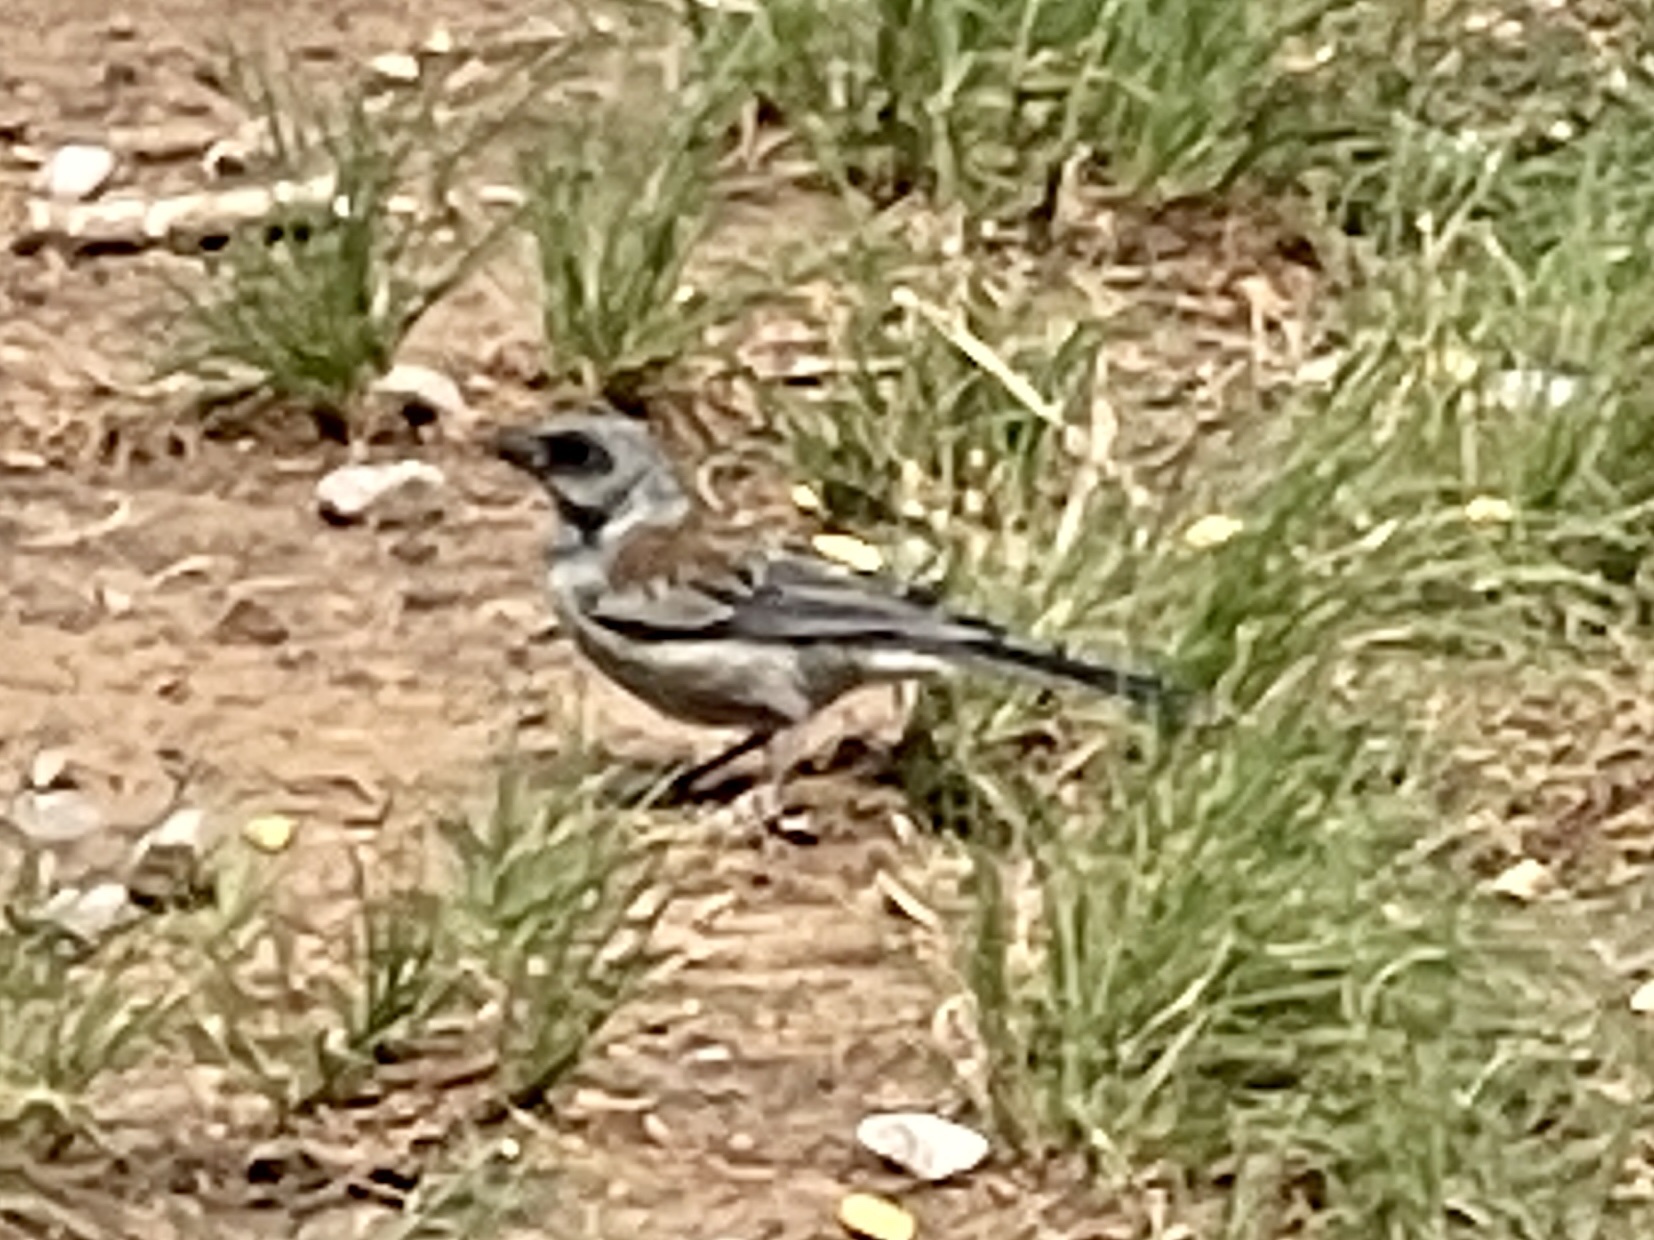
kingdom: Animalia
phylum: Chordata
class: Aves
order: Passeriformes
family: Passerellidae
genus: Junco
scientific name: Junco hyemalis
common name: Dark-eyed junco
